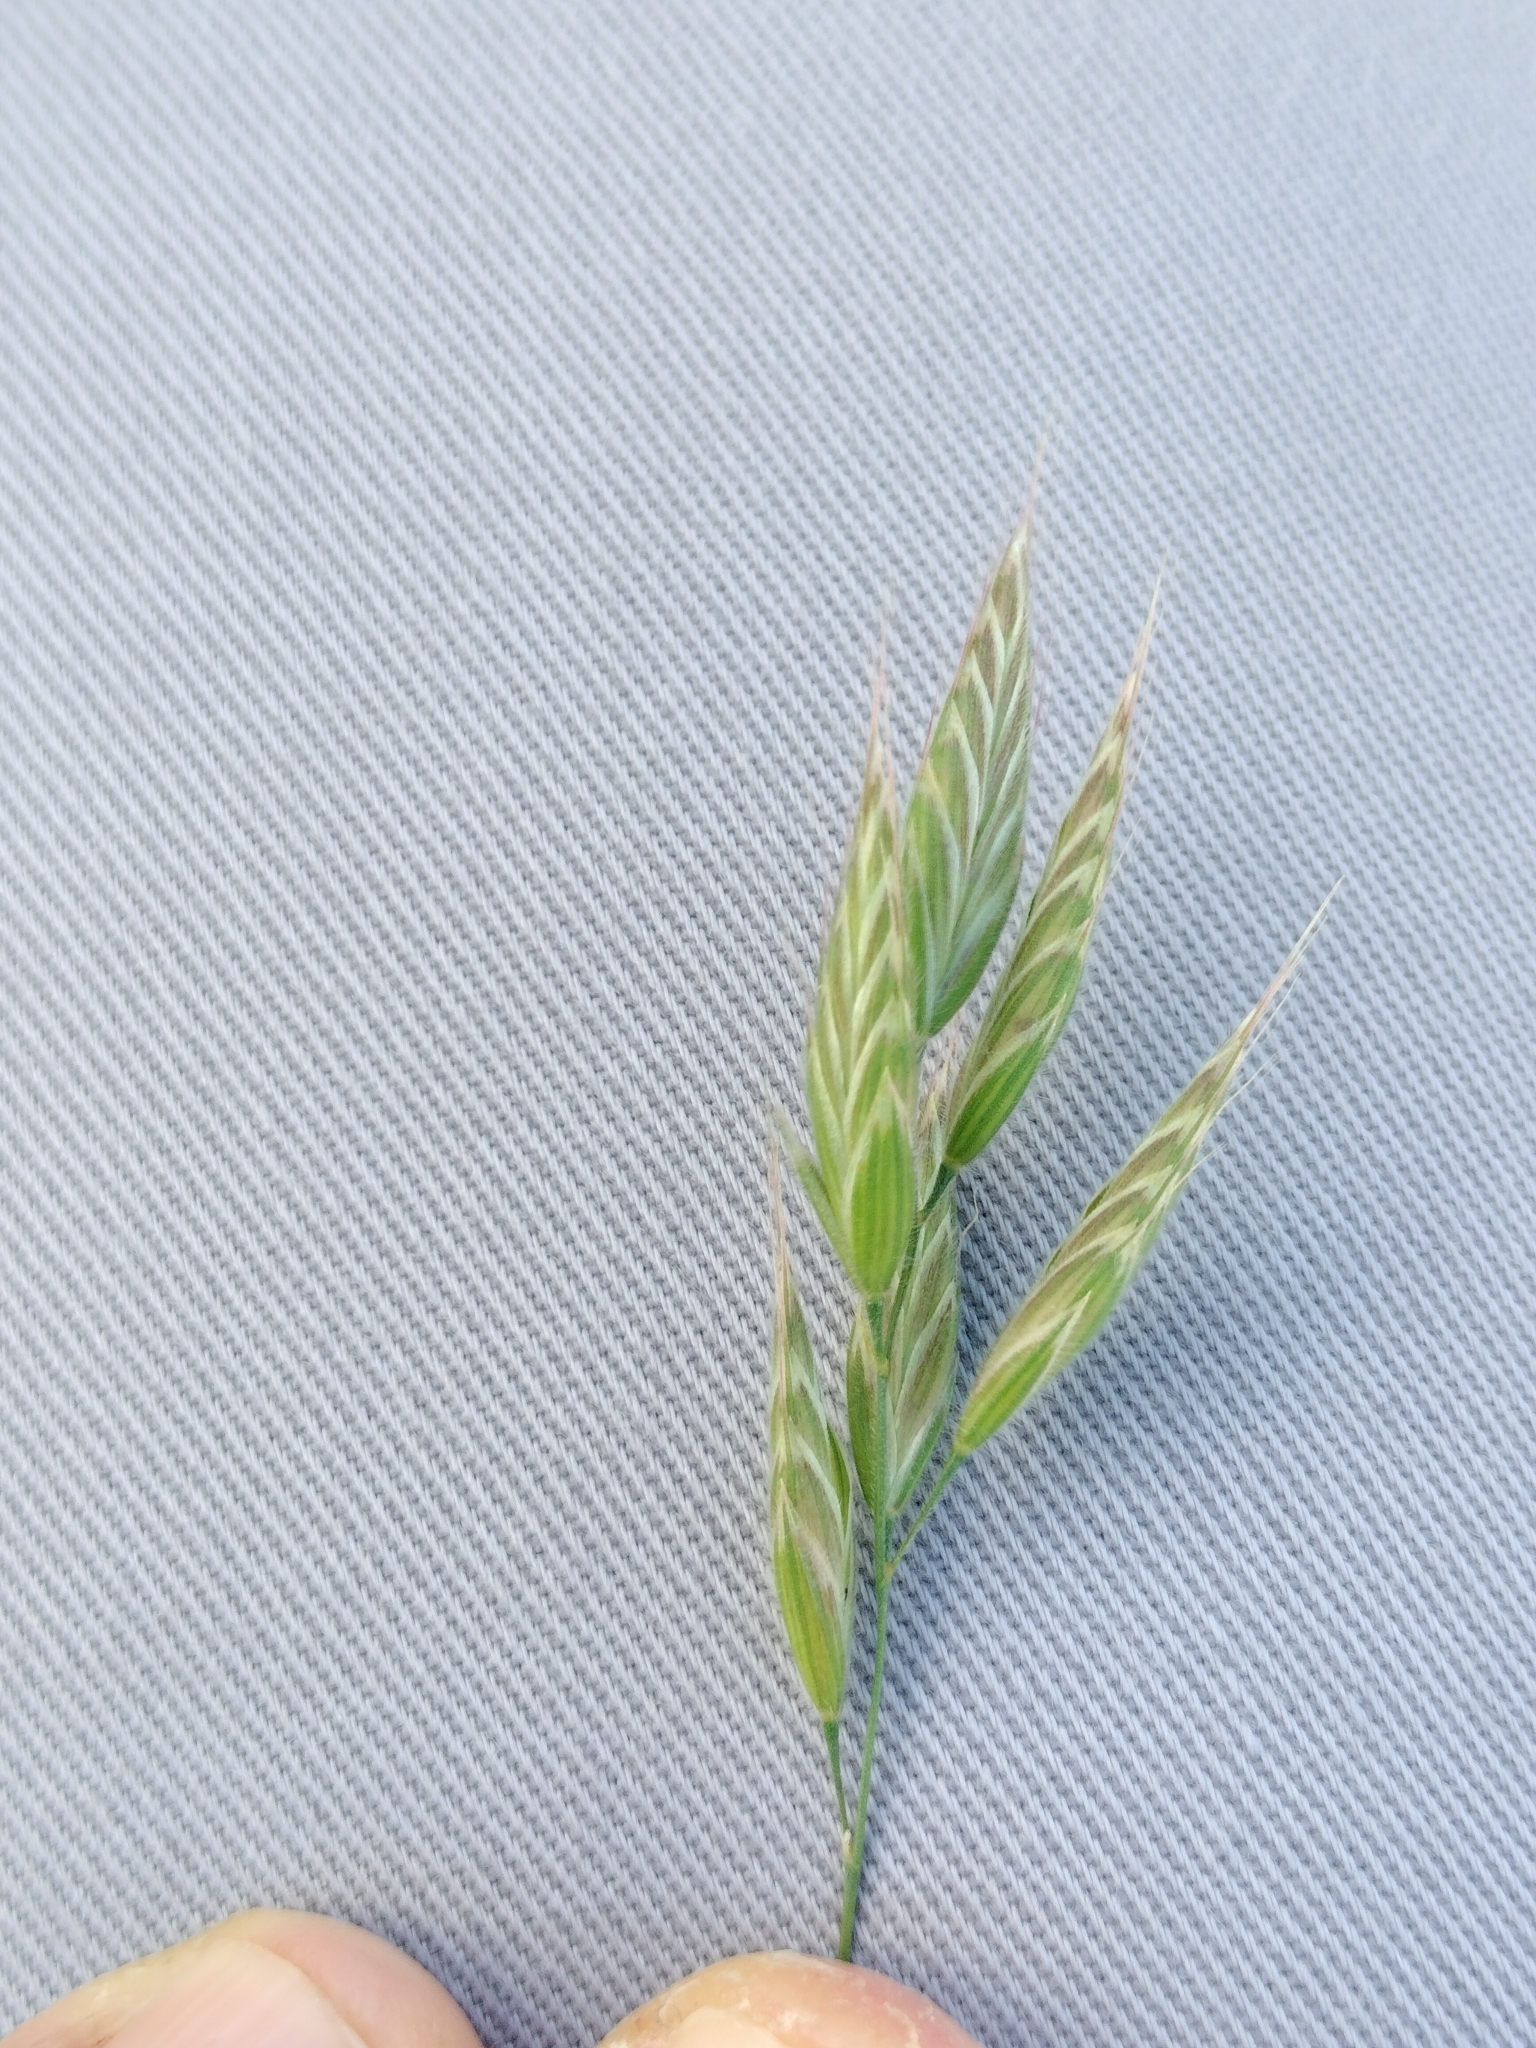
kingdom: Plantae
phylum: Tracheophyta
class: Liliopsida
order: Poales
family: Poaceae
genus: Bromus
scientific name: Bromus hordeaceus
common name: Soft brome
